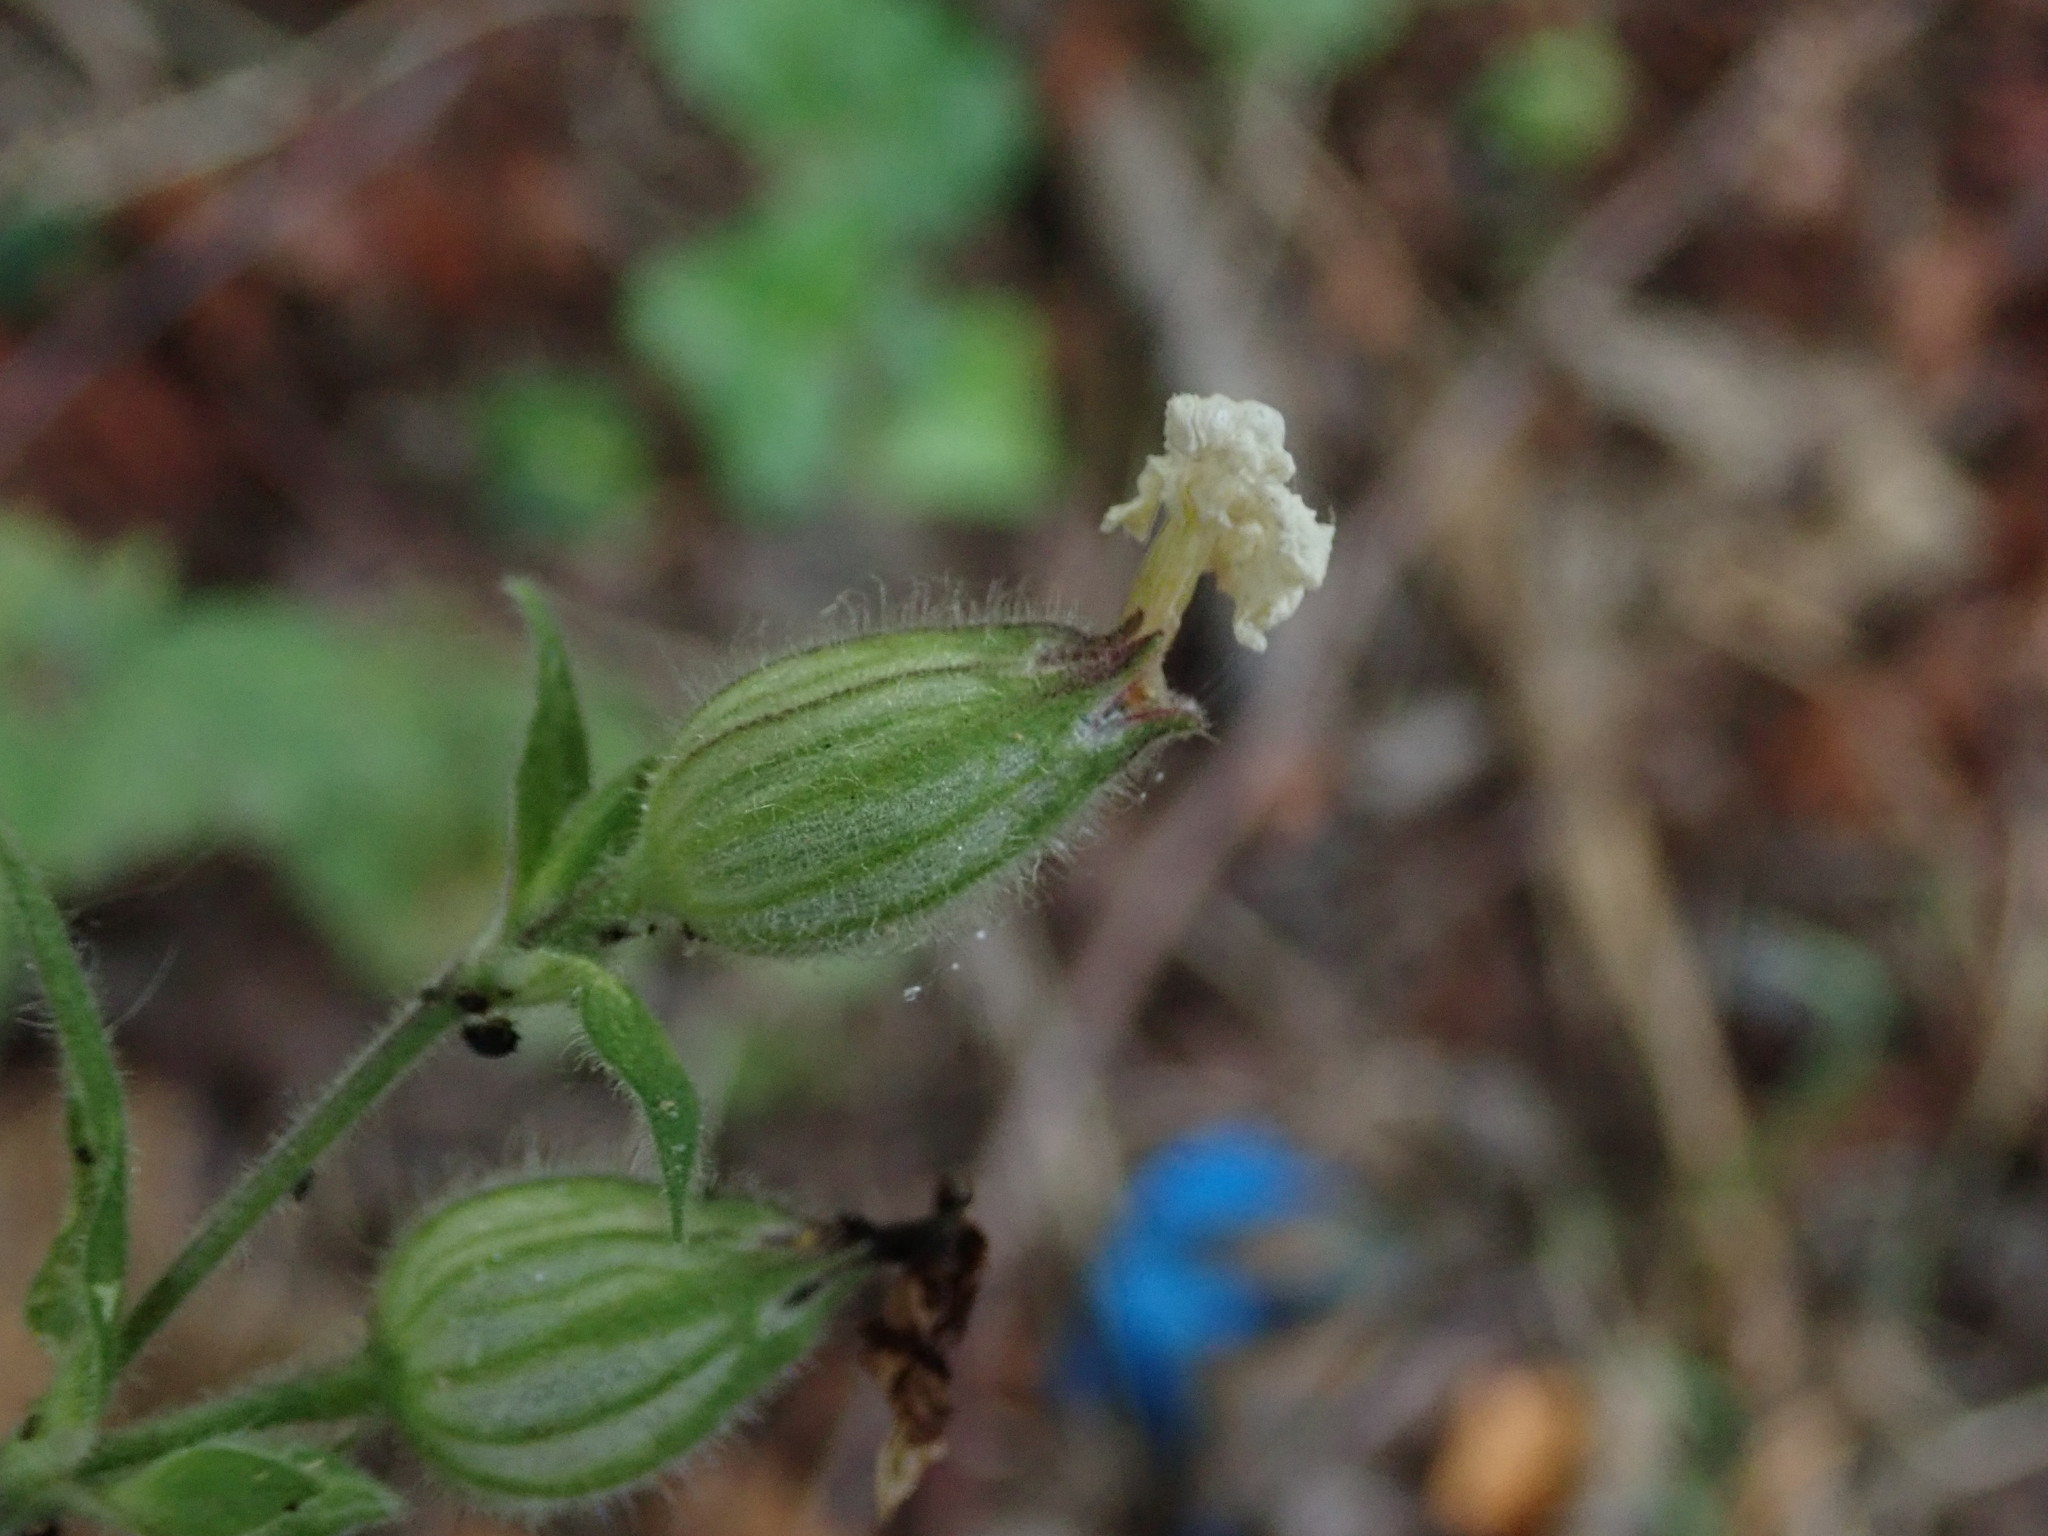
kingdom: Plantae
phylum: Tracheophyta
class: Magnoliopsida
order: Caryophyllales
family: Caryophyllaceae
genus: Silene
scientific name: Silene latifolia
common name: White campion
